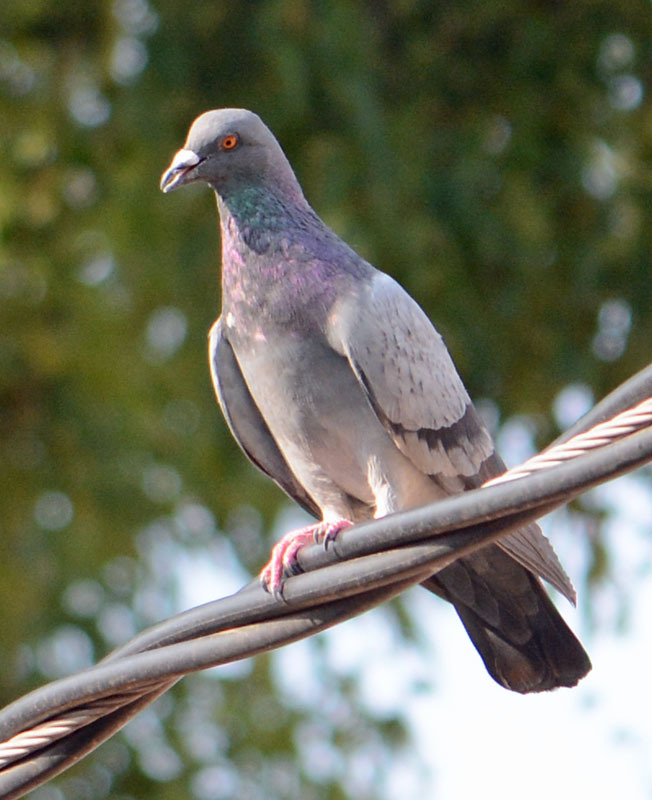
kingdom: Animalia
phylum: Chordata
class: Aves
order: Columbiformes
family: Columbidae
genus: Columba
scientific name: Columba livia
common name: Rock pigeon
